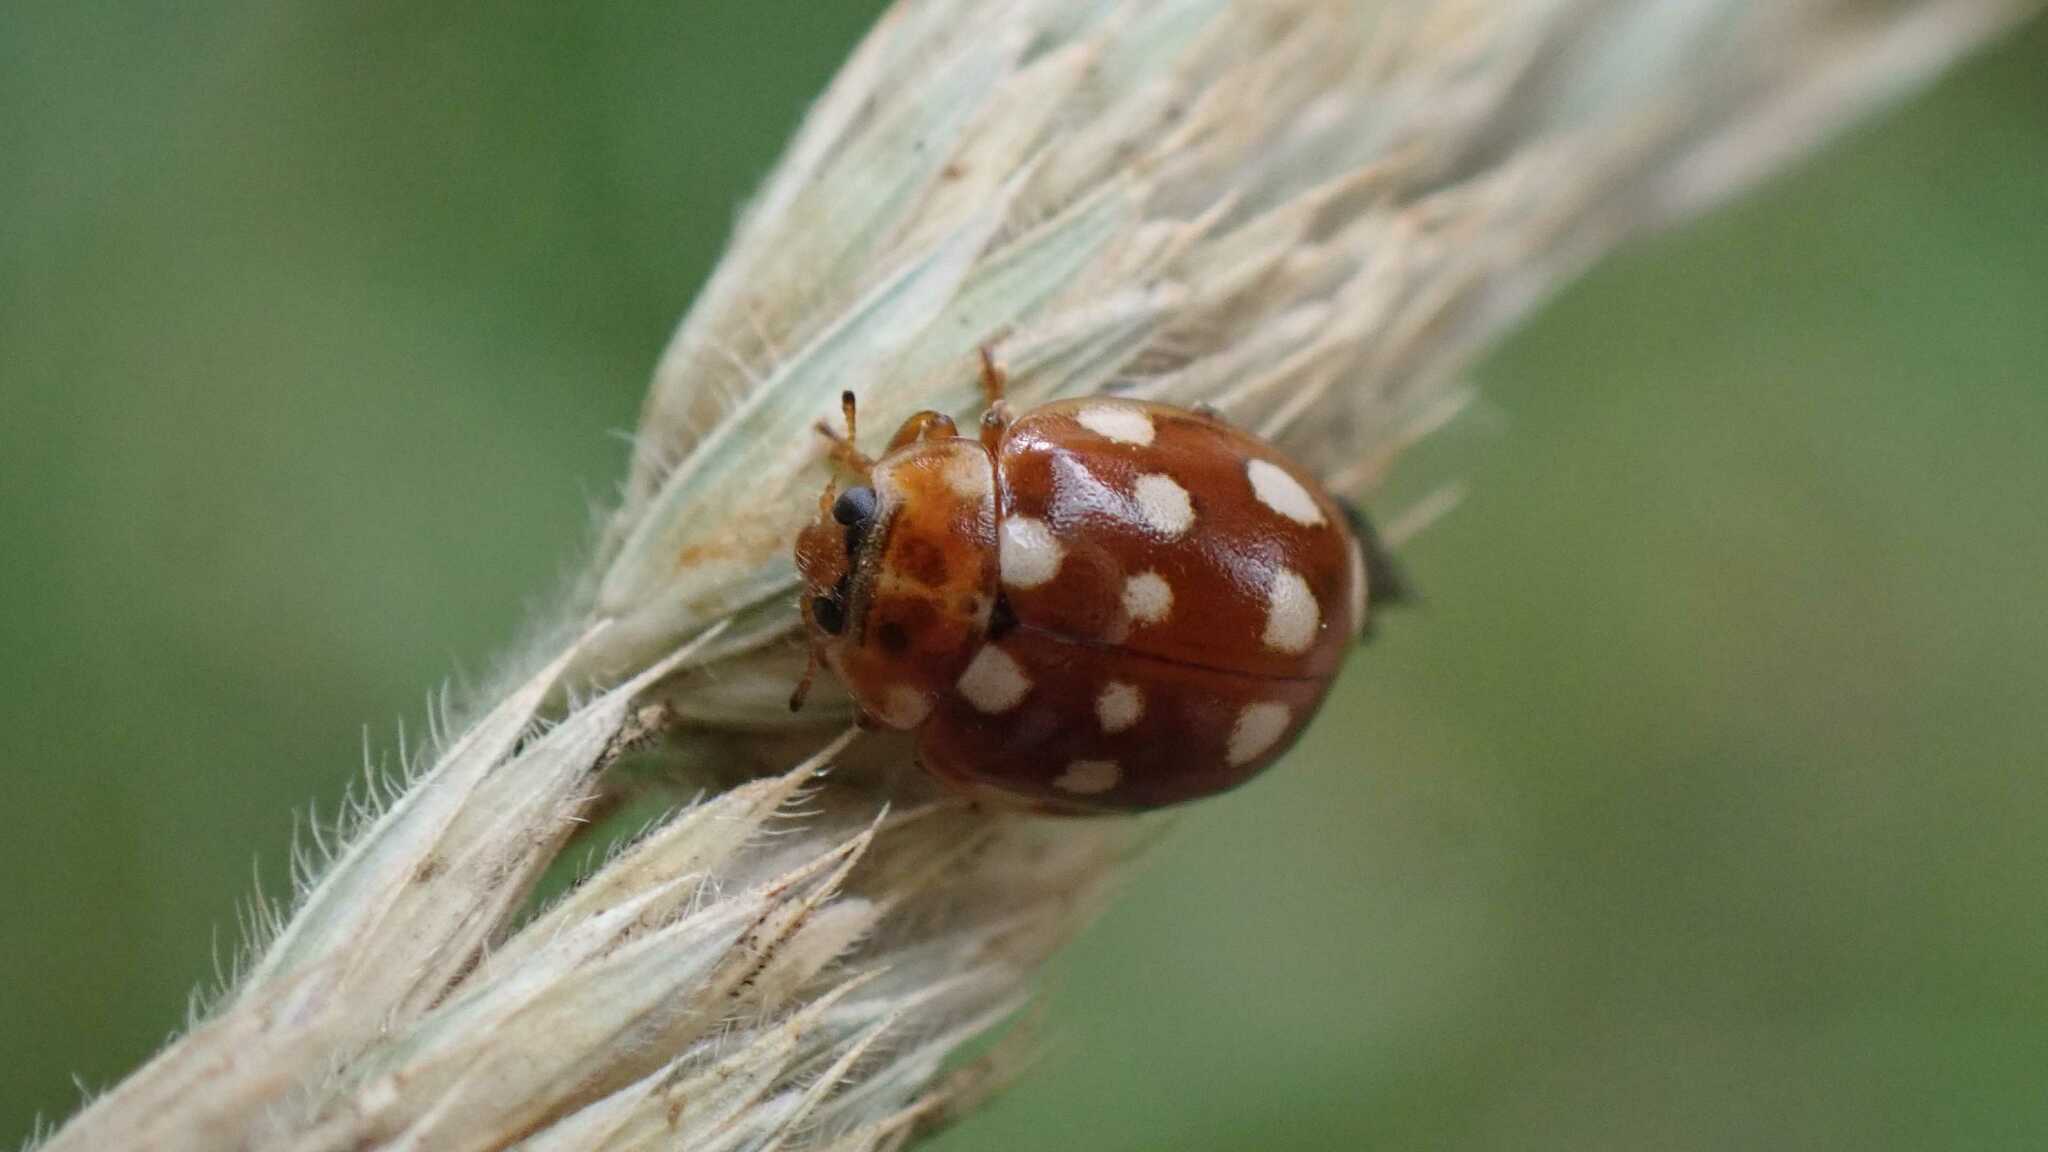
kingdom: Animalia
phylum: Arthropoda
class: Insecta
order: Coleoptera
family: Coccinellidae
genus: Calvia
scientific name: Calvia quatuordecimguttata
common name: Cream-spot ladybird
